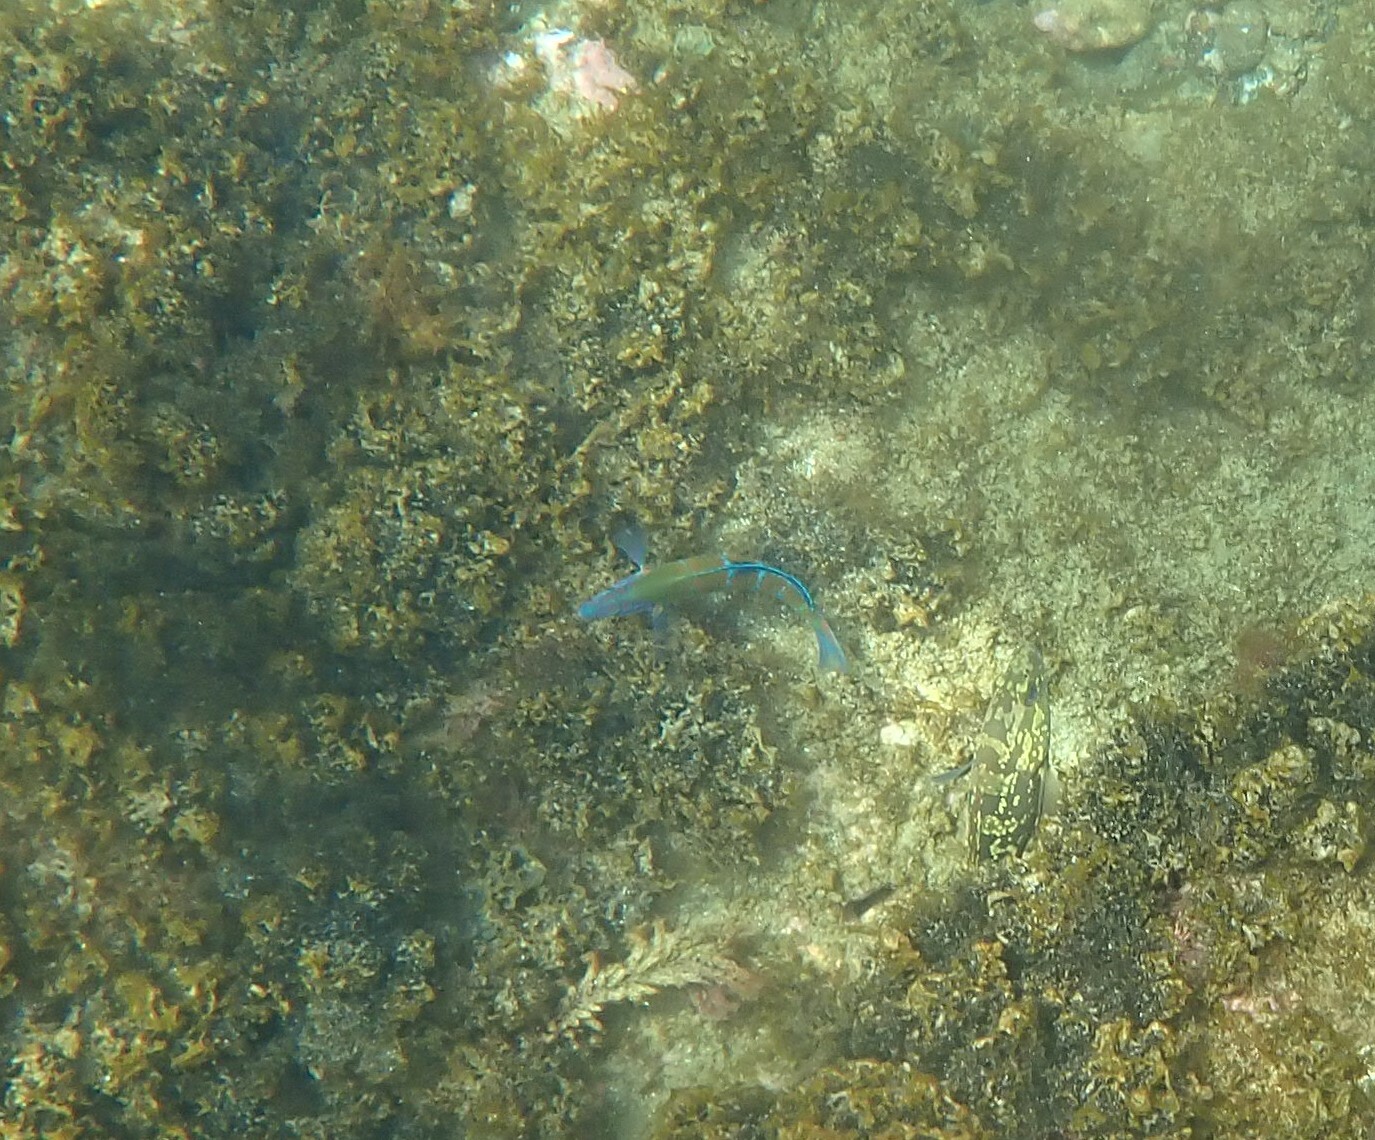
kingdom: Animalia
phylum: Chordata
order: Perciformes
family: Labridae
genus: Thalassoma
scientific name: Thalassoma pavo
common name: Ornate wrasse
